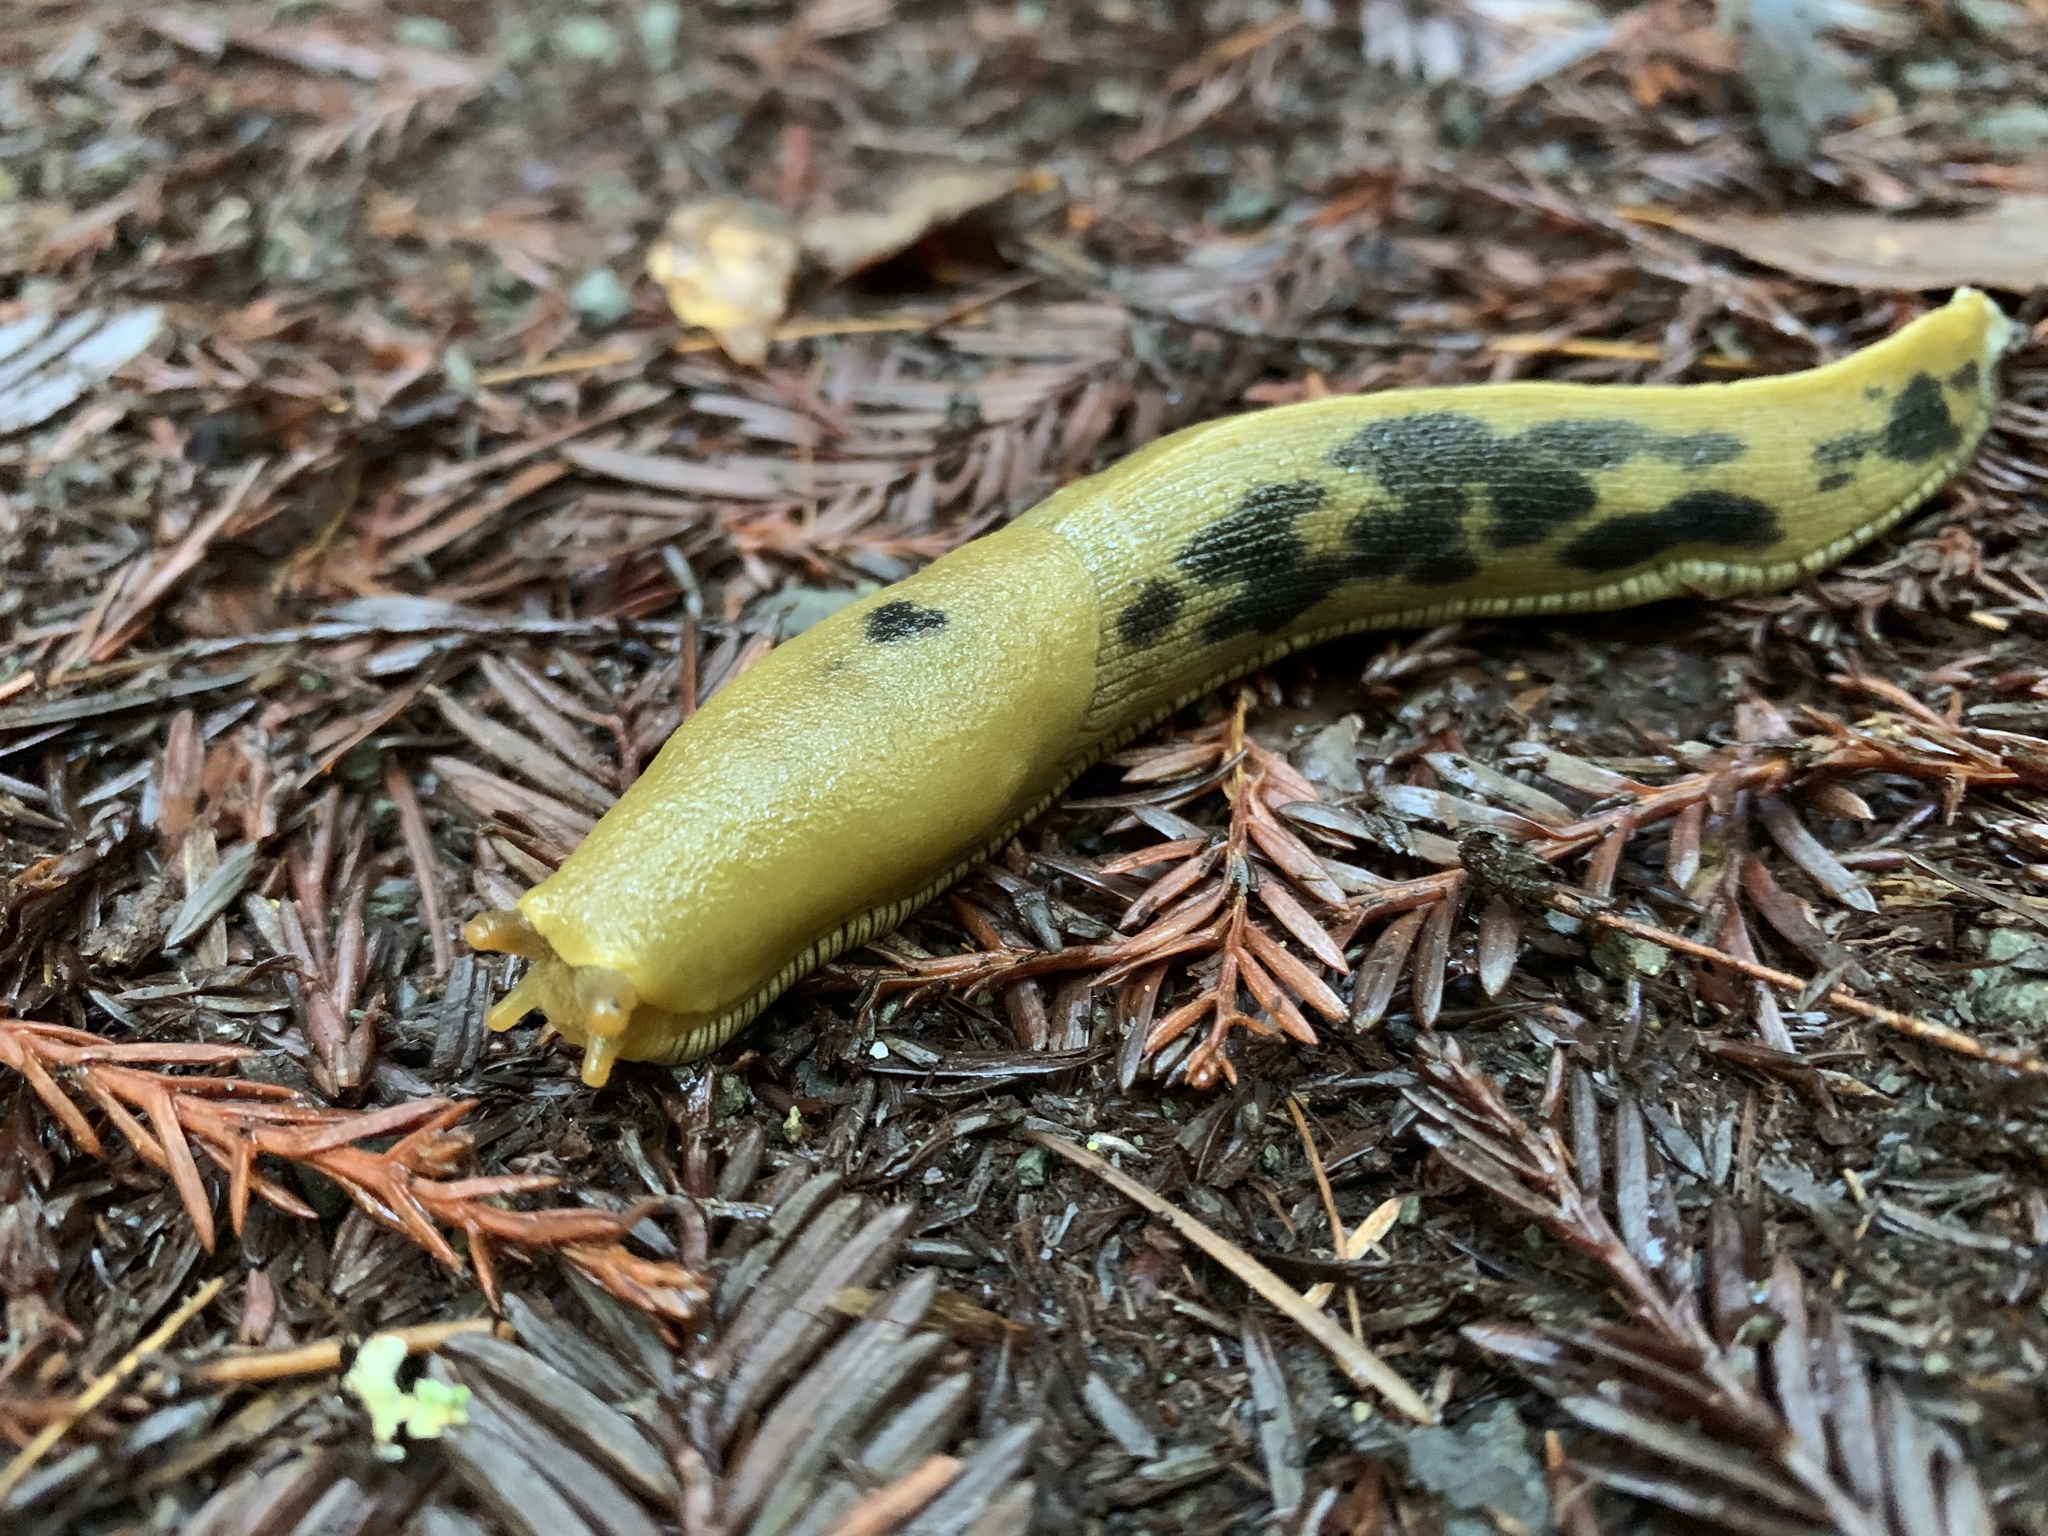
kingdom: Animalia
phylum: Mollusca
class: Gastropoda
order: Stylommatophora
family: Ariolimacidae
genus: Ariolimax
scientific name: Ariolimax columbianus
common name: Pacific banana slug
